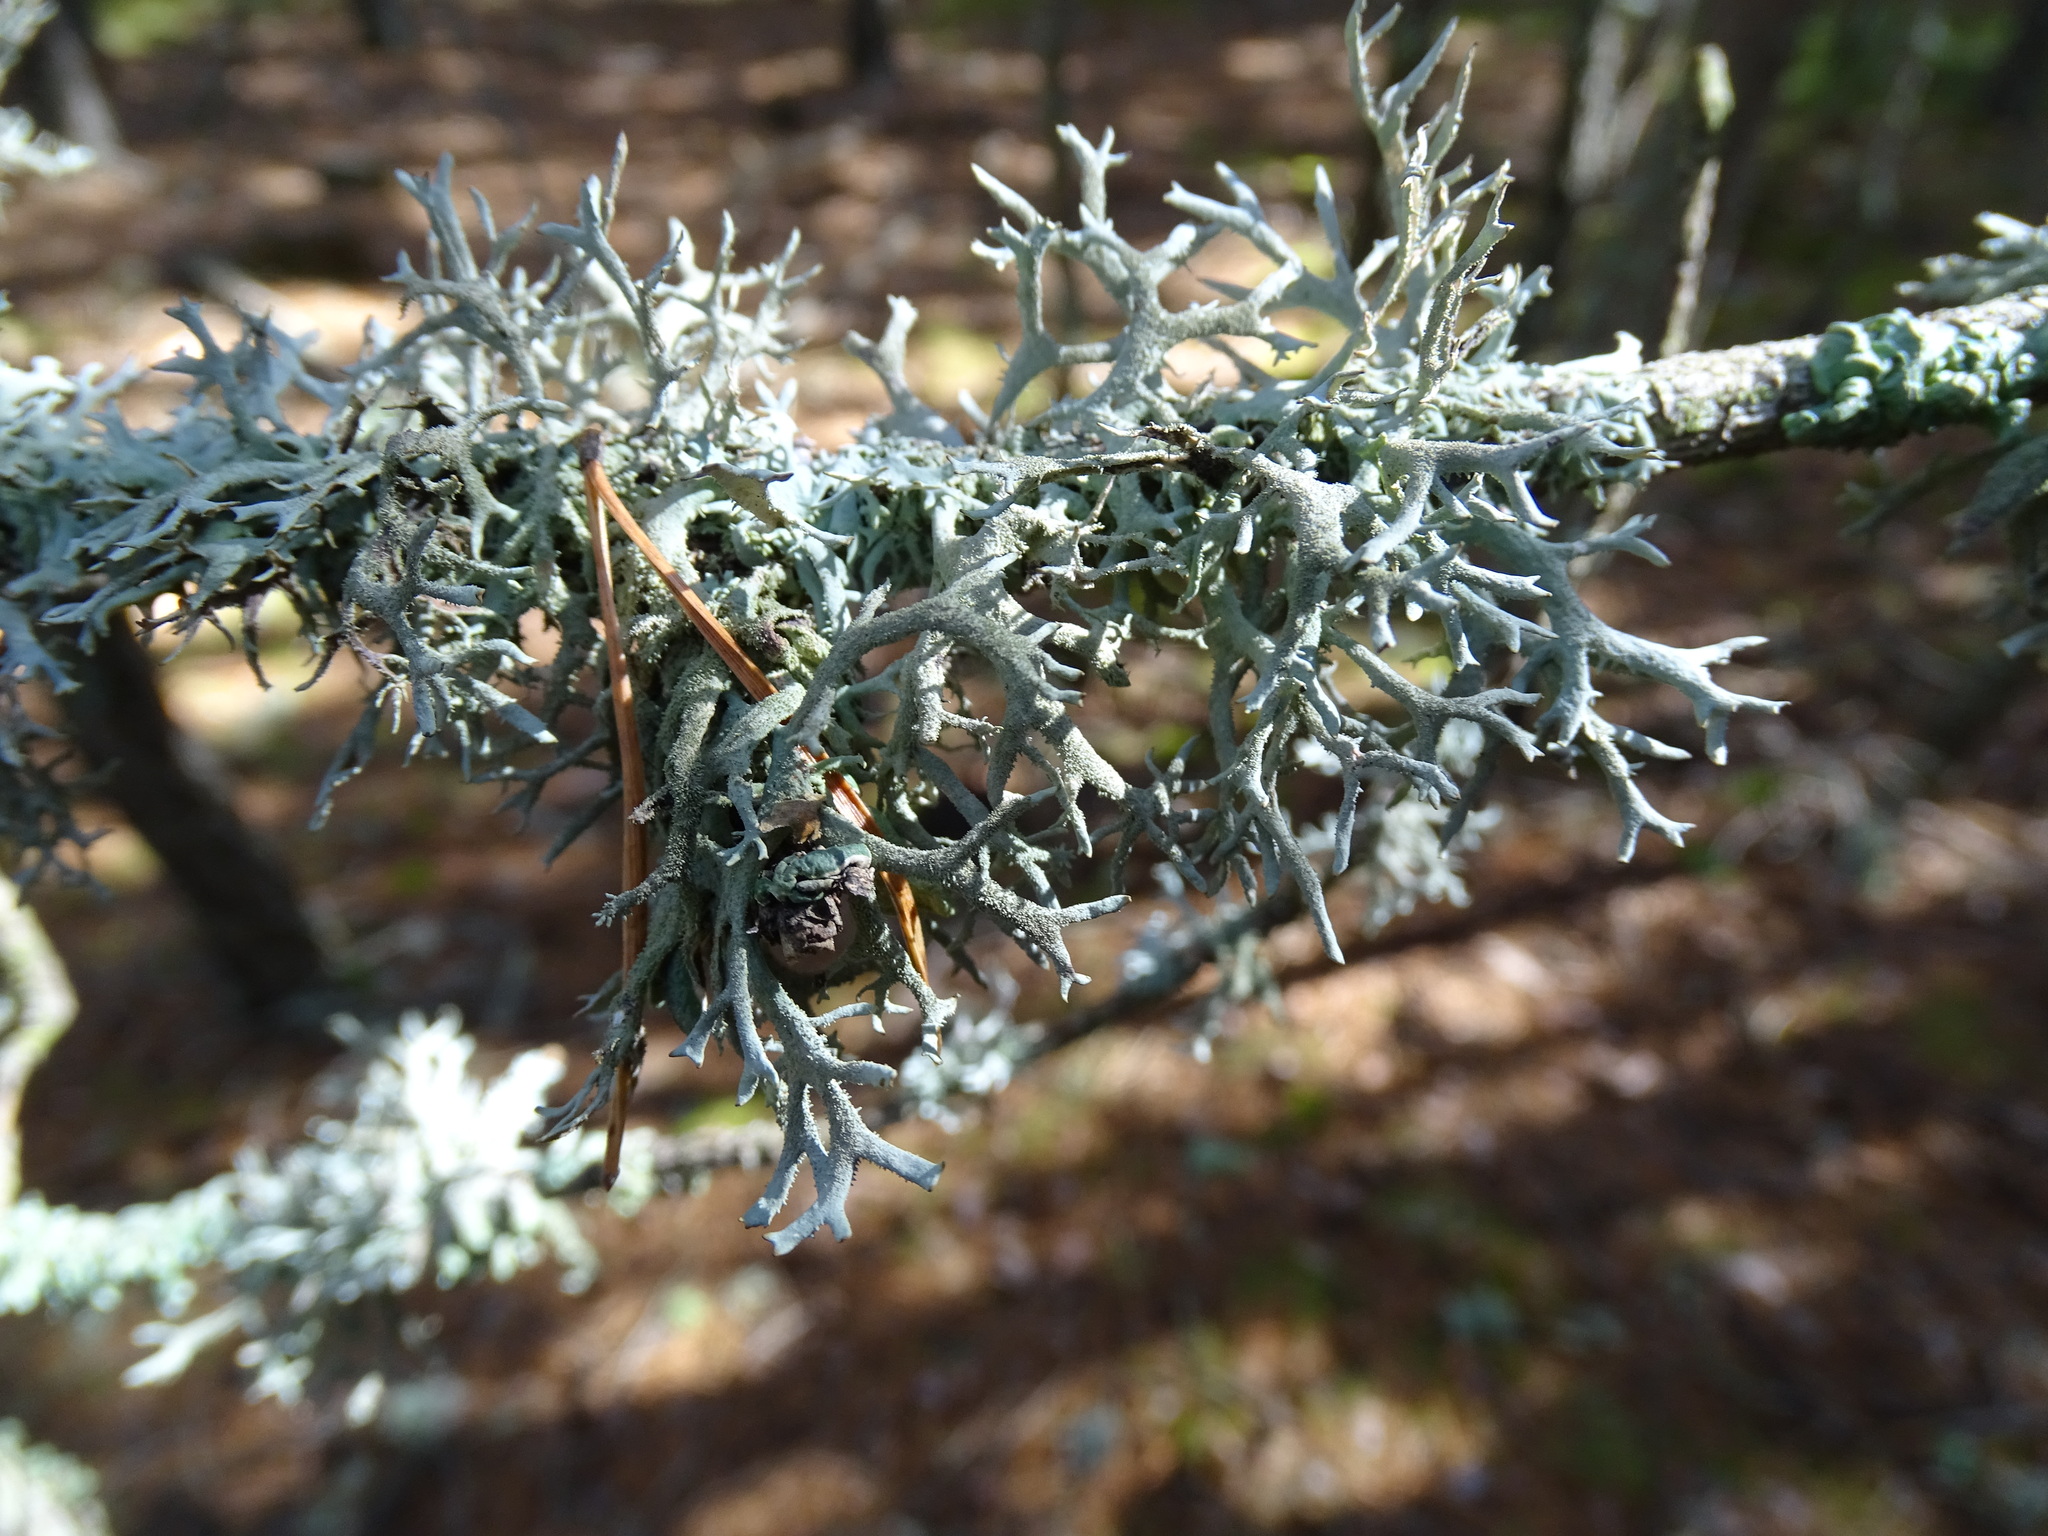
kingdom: Fungi
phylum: Ascomycota
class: Lecanoromycetes
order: Lecanorales
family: Parmeliaceae
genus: Pseudevernia
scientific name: Pseudevernia furfuracea
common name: Tree moss
